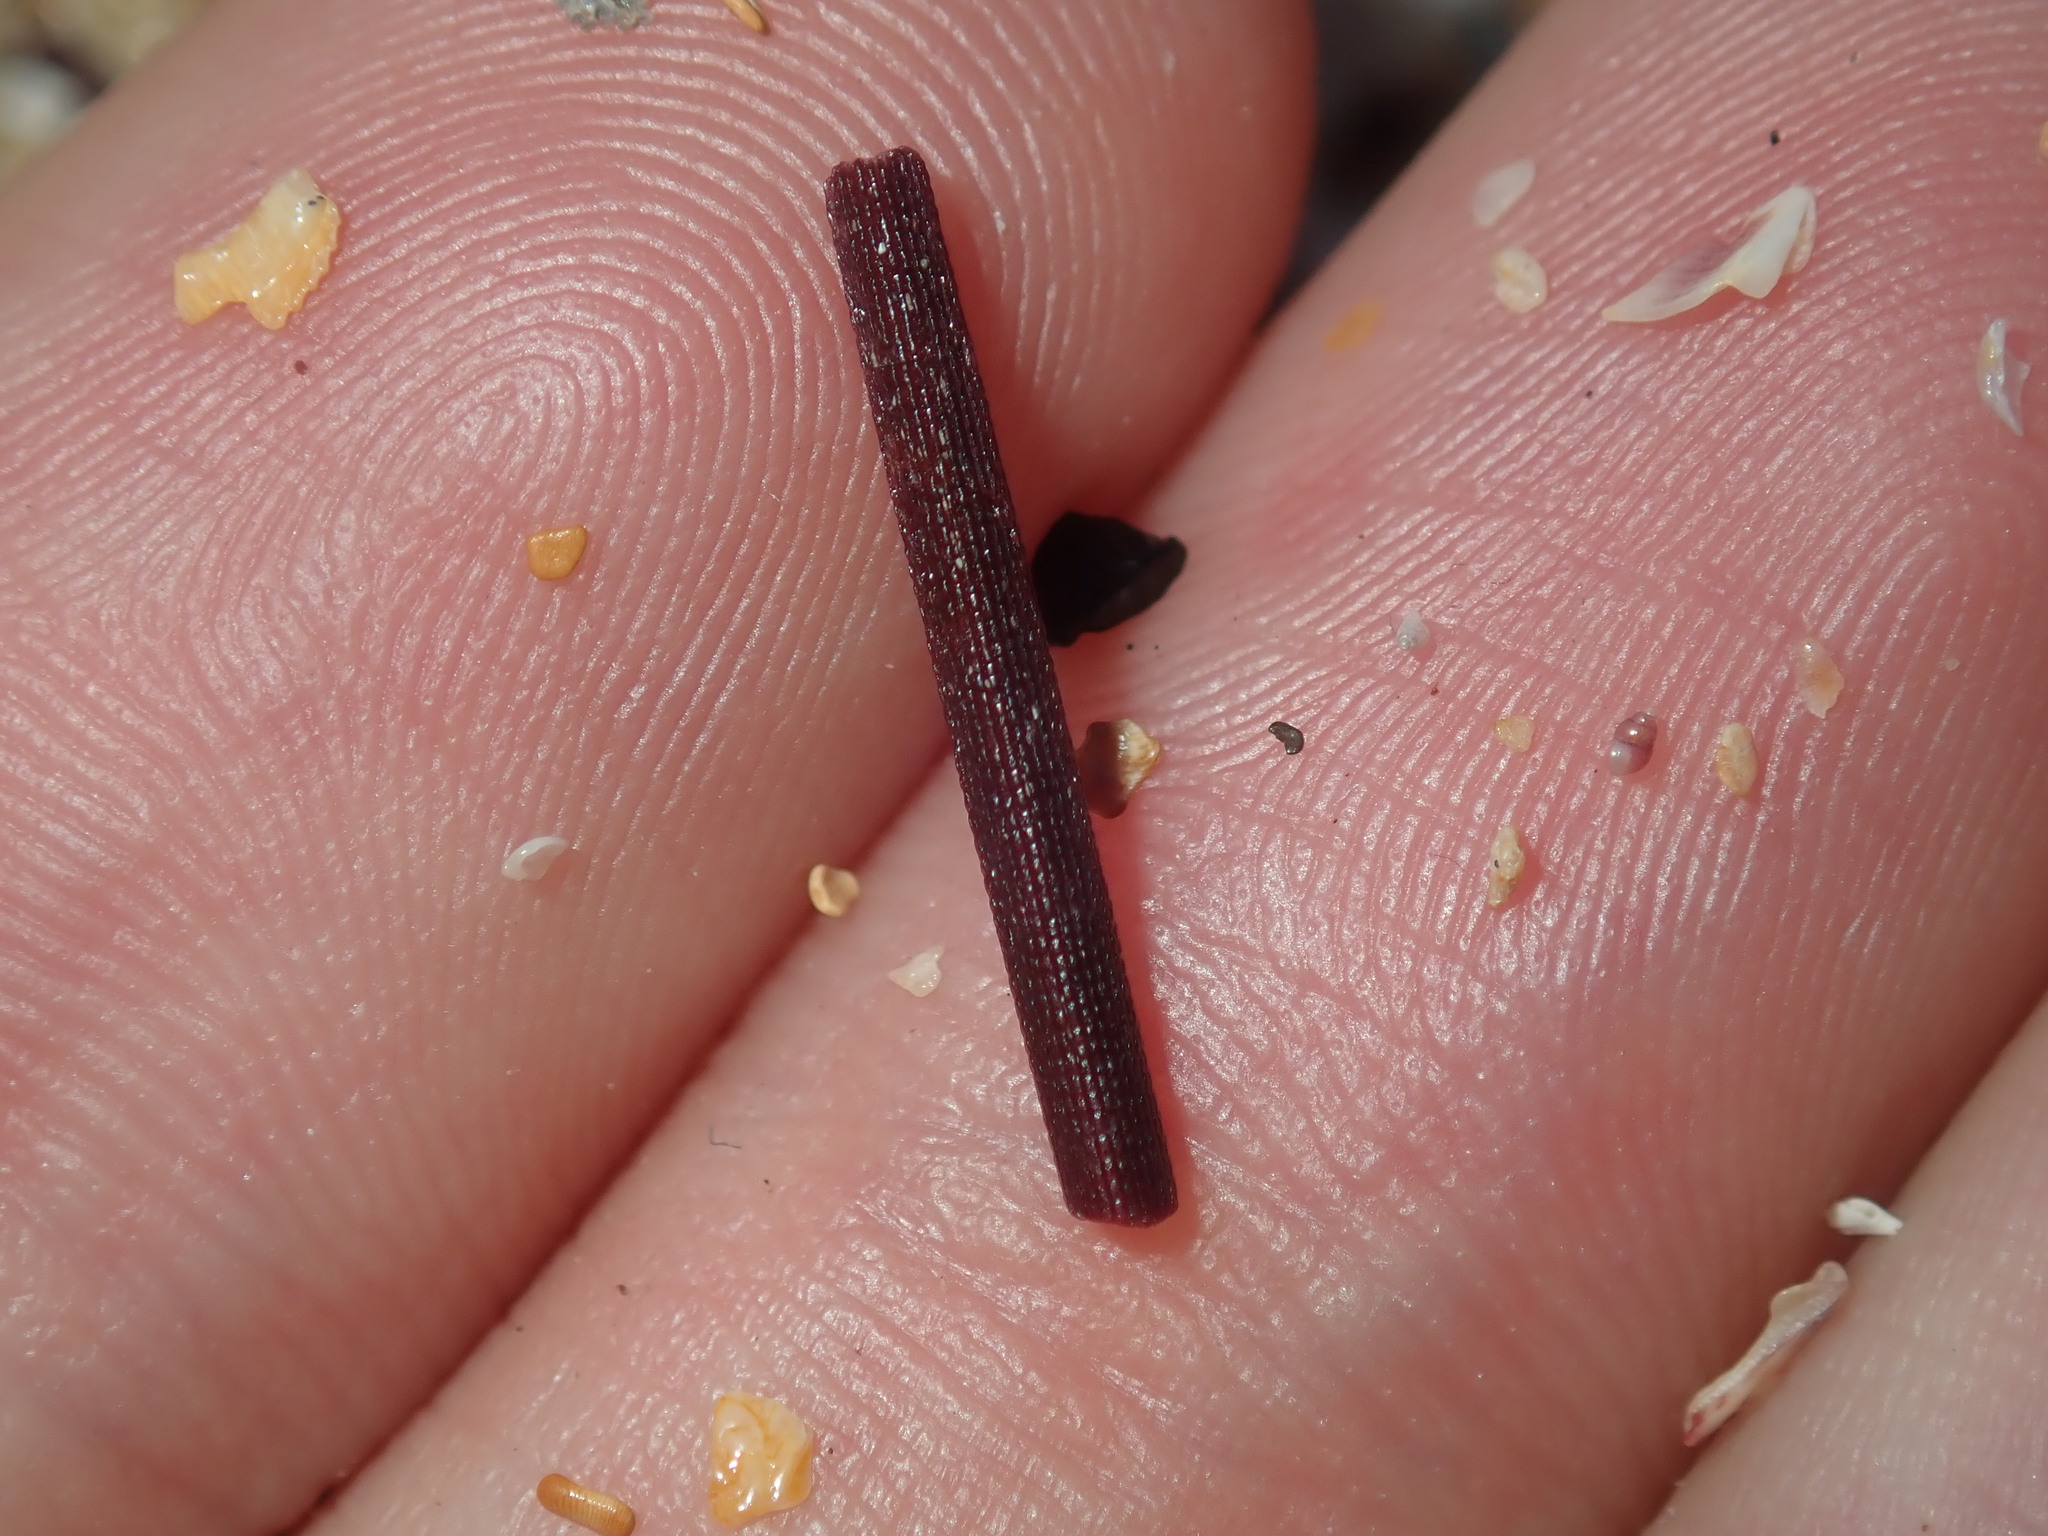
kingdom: Animalia
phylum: Echinodermata
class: Echinoidea
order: Diadematoida
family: Diadematidae
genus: Centrostephanus
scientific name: Centrostephanus rodgersii
